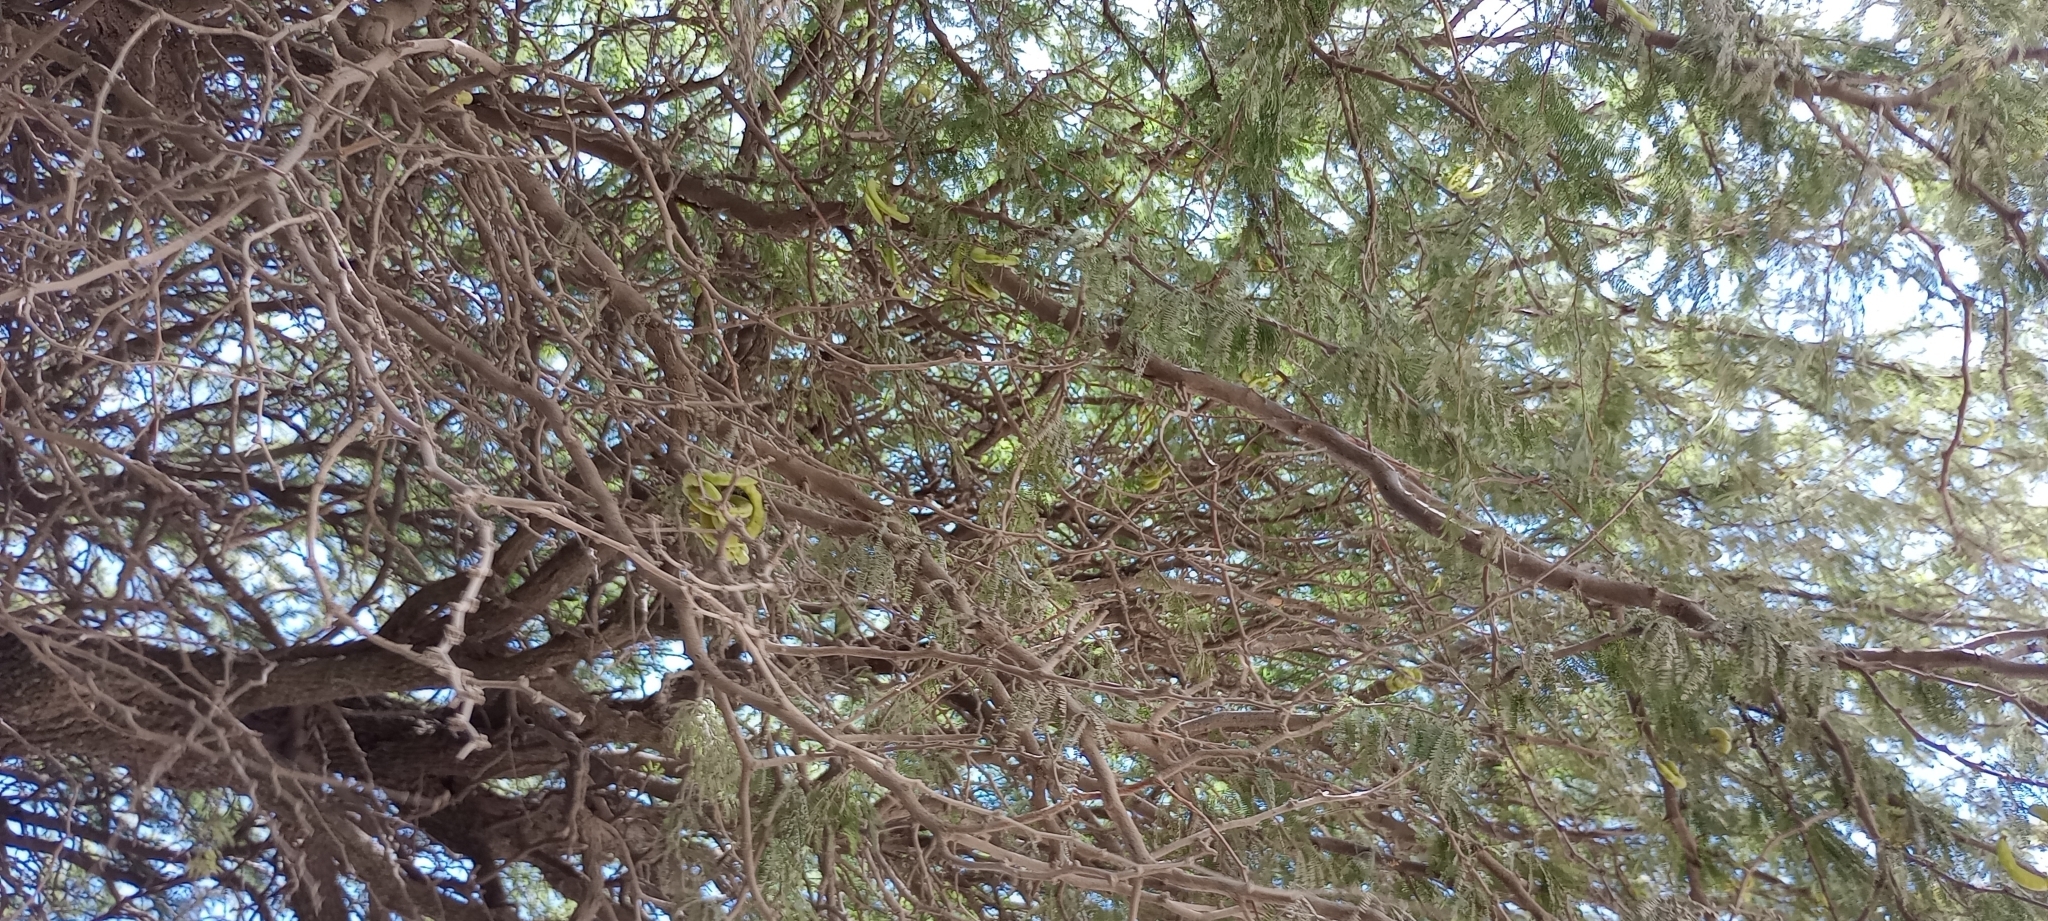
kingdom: Plantae
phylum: Tracheophyta
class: Magnoliopsida
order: Fabales
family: Fabaceae
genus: Prosopis
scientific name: Prosopis caldenia
